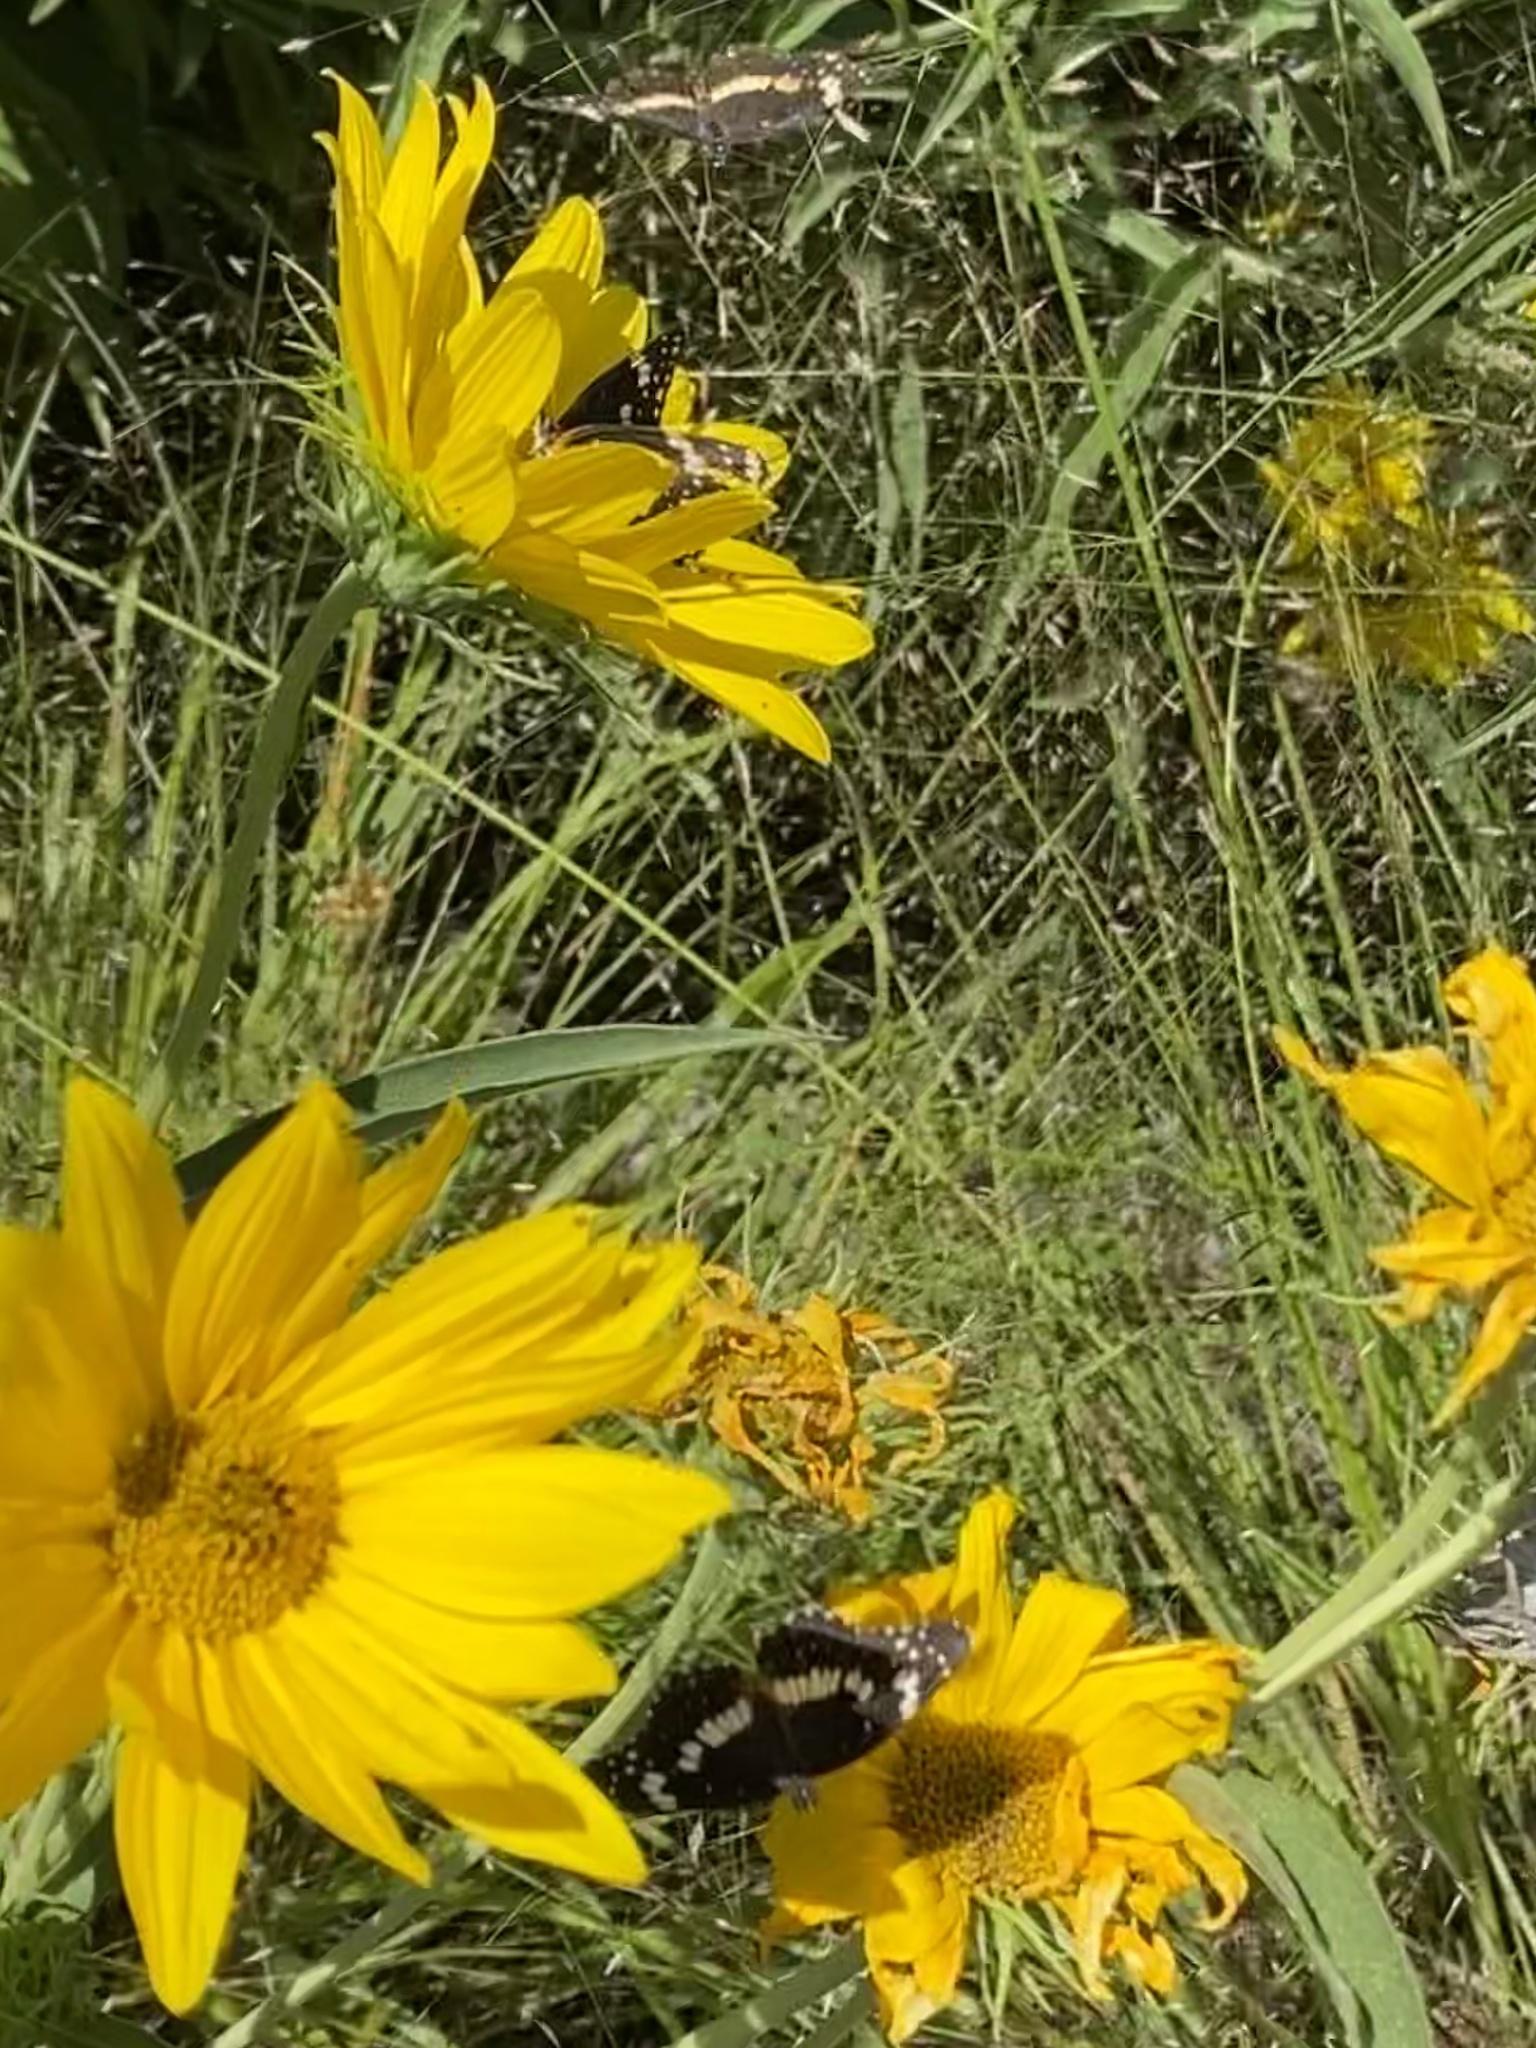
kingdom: Animalia
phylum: Arthropoda
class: Insecta
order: Lepidoptera
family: Nymphalidae
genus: Chlosyne
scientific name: Chlosyne lacinia
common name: Bordered patch
